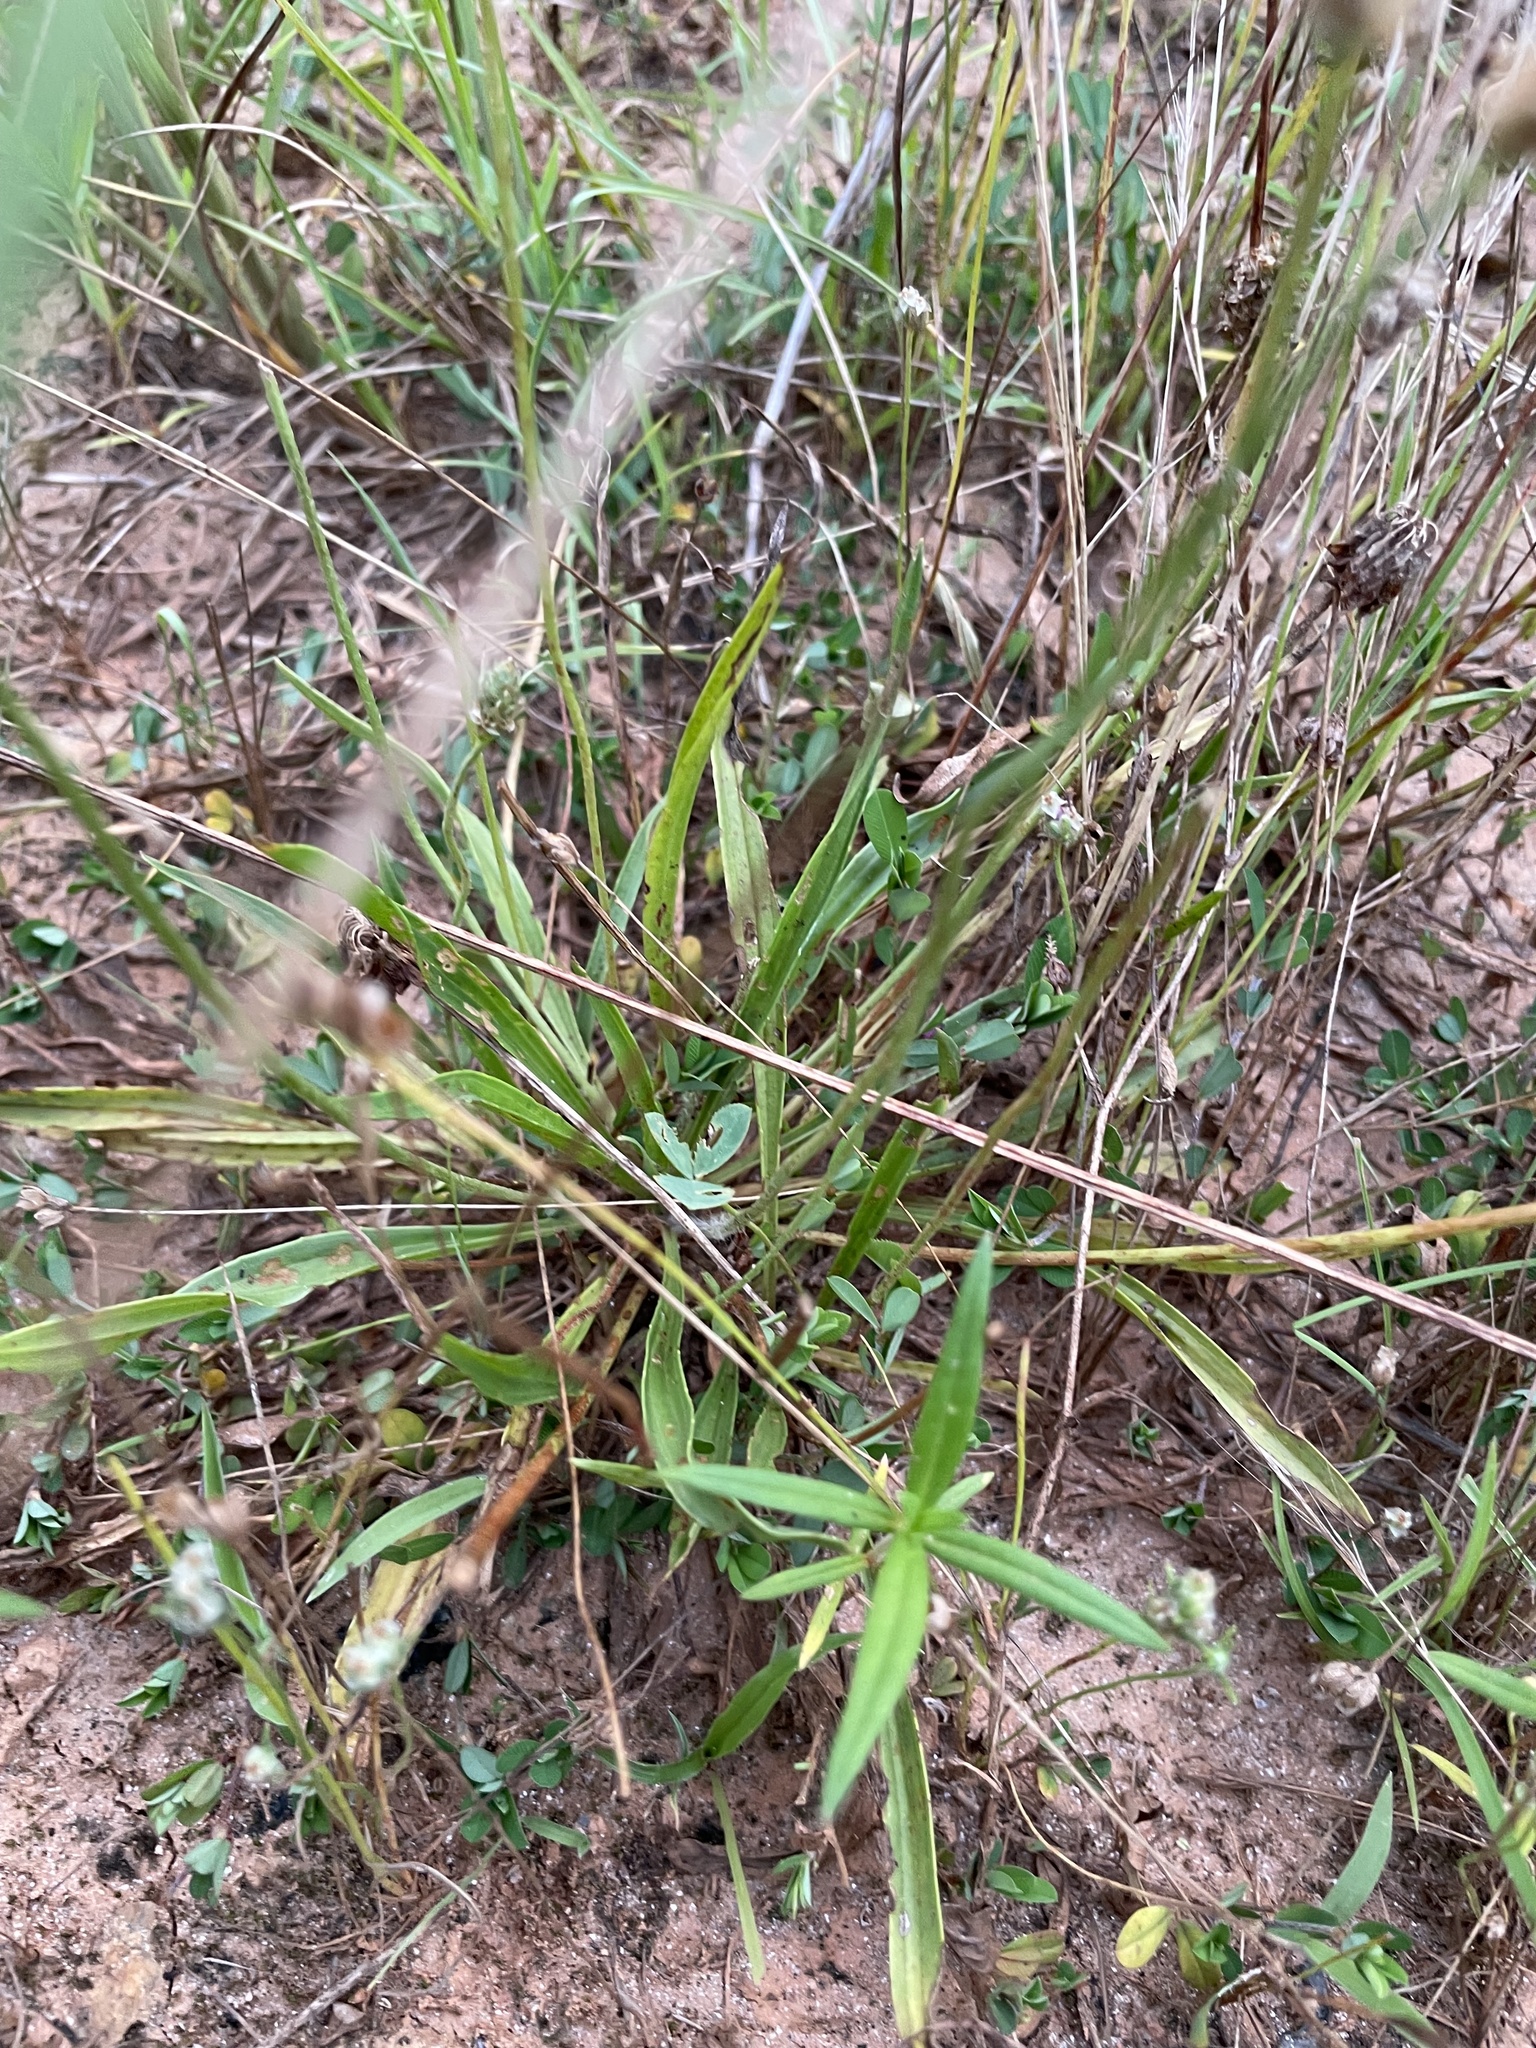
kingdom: Plantae
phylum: Tracheophyta
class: Magnoliopsida
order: Lamiales
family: Plantaginaceae
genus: Plantago
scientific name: Plantago lanceolata
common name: Ribwort plantain
